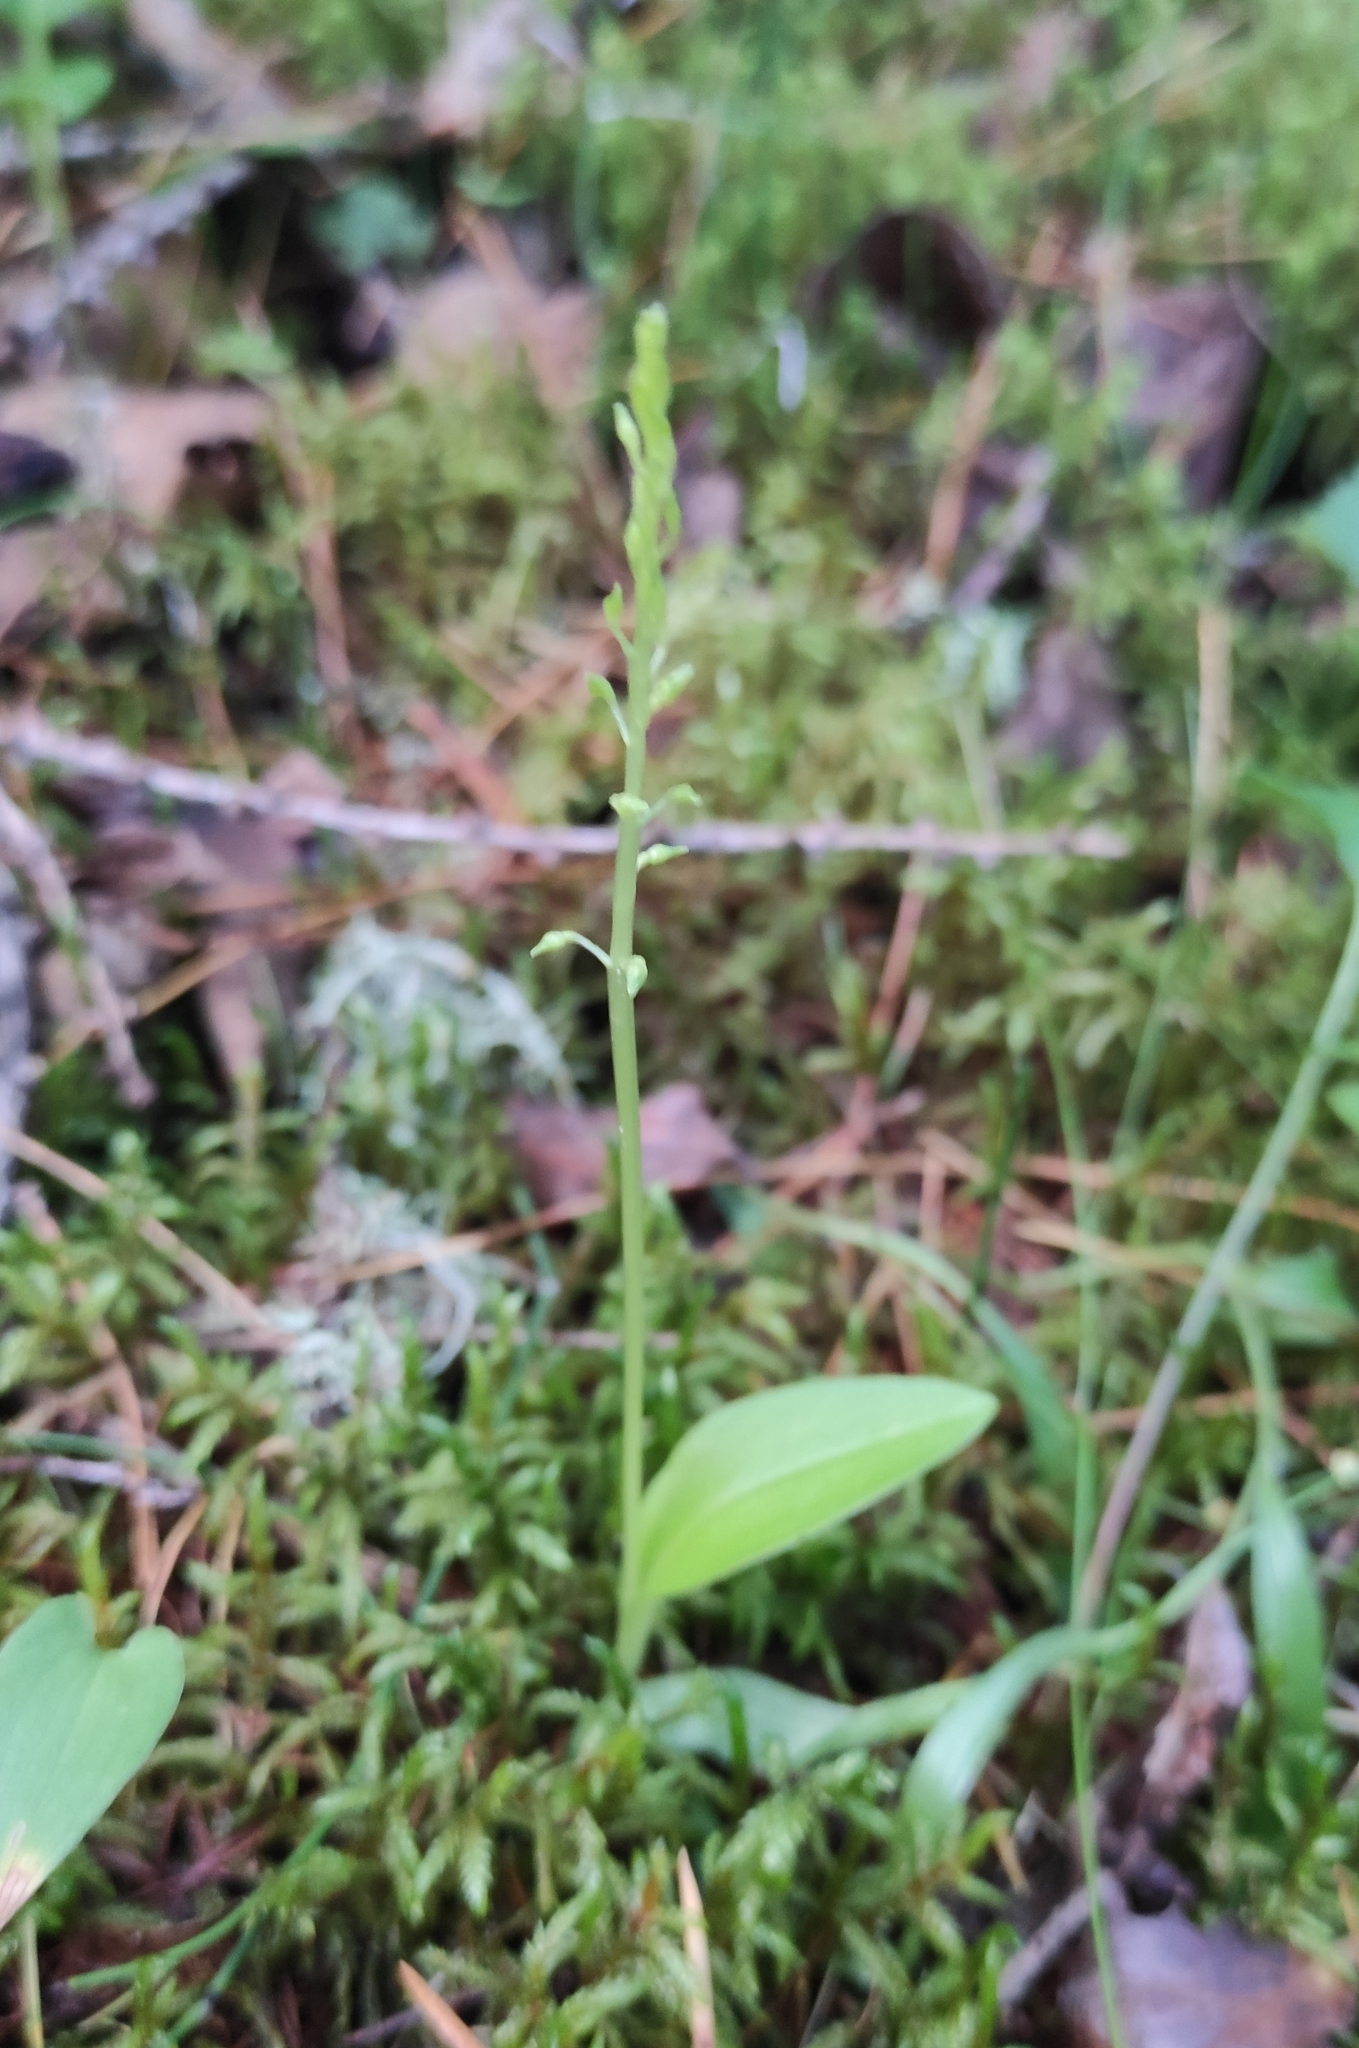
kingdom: Plantae
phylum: Tracheophyta
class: Liliopsida
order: Asparagales
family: Orchidaceae
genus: Malaxis
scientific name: Malaxis monophyllos
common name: White adder's-mouth
